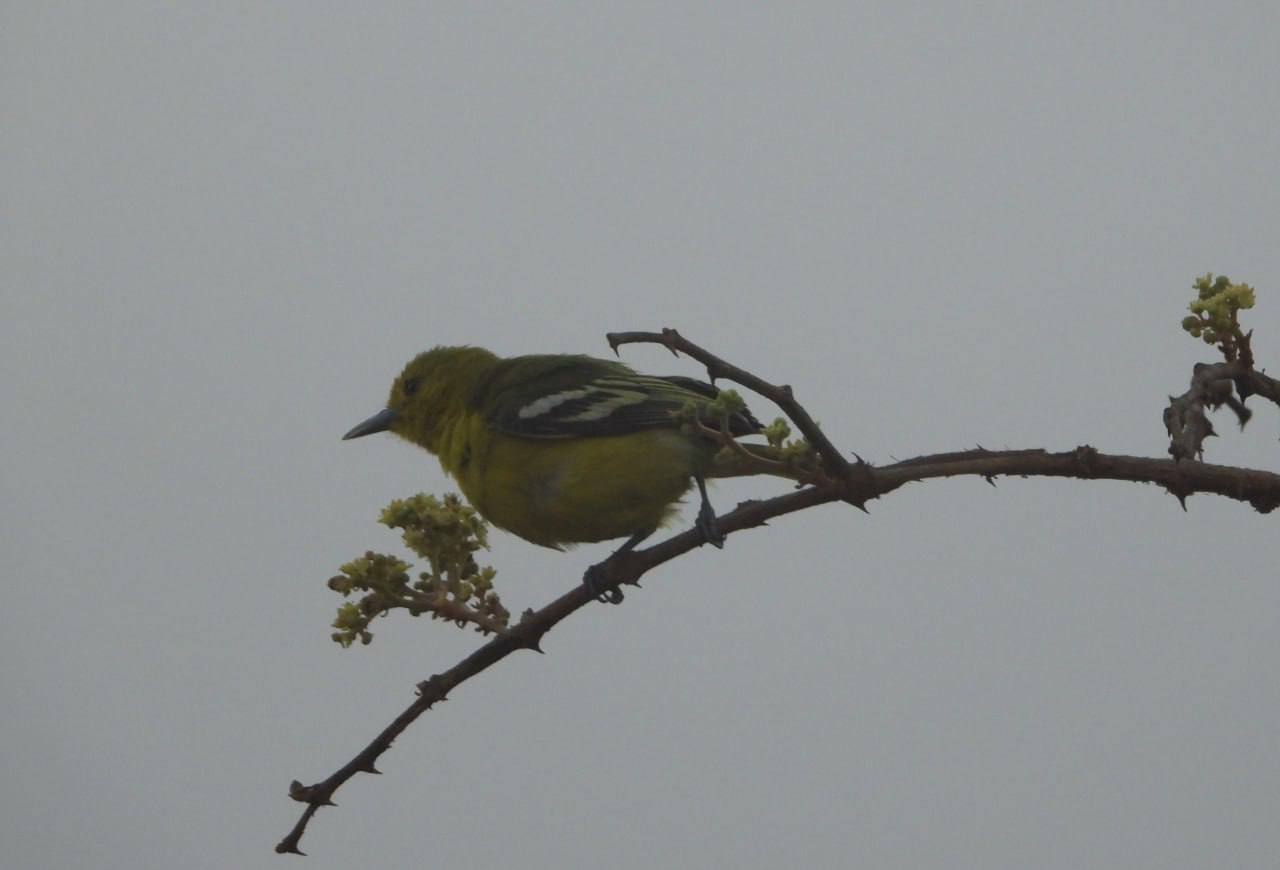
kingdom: Animalia
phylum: Chordata
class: Aves
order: Passeriformes
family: Aegithinidae
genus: Aegithina
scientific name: Aegithina tiphia
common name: Common iora
